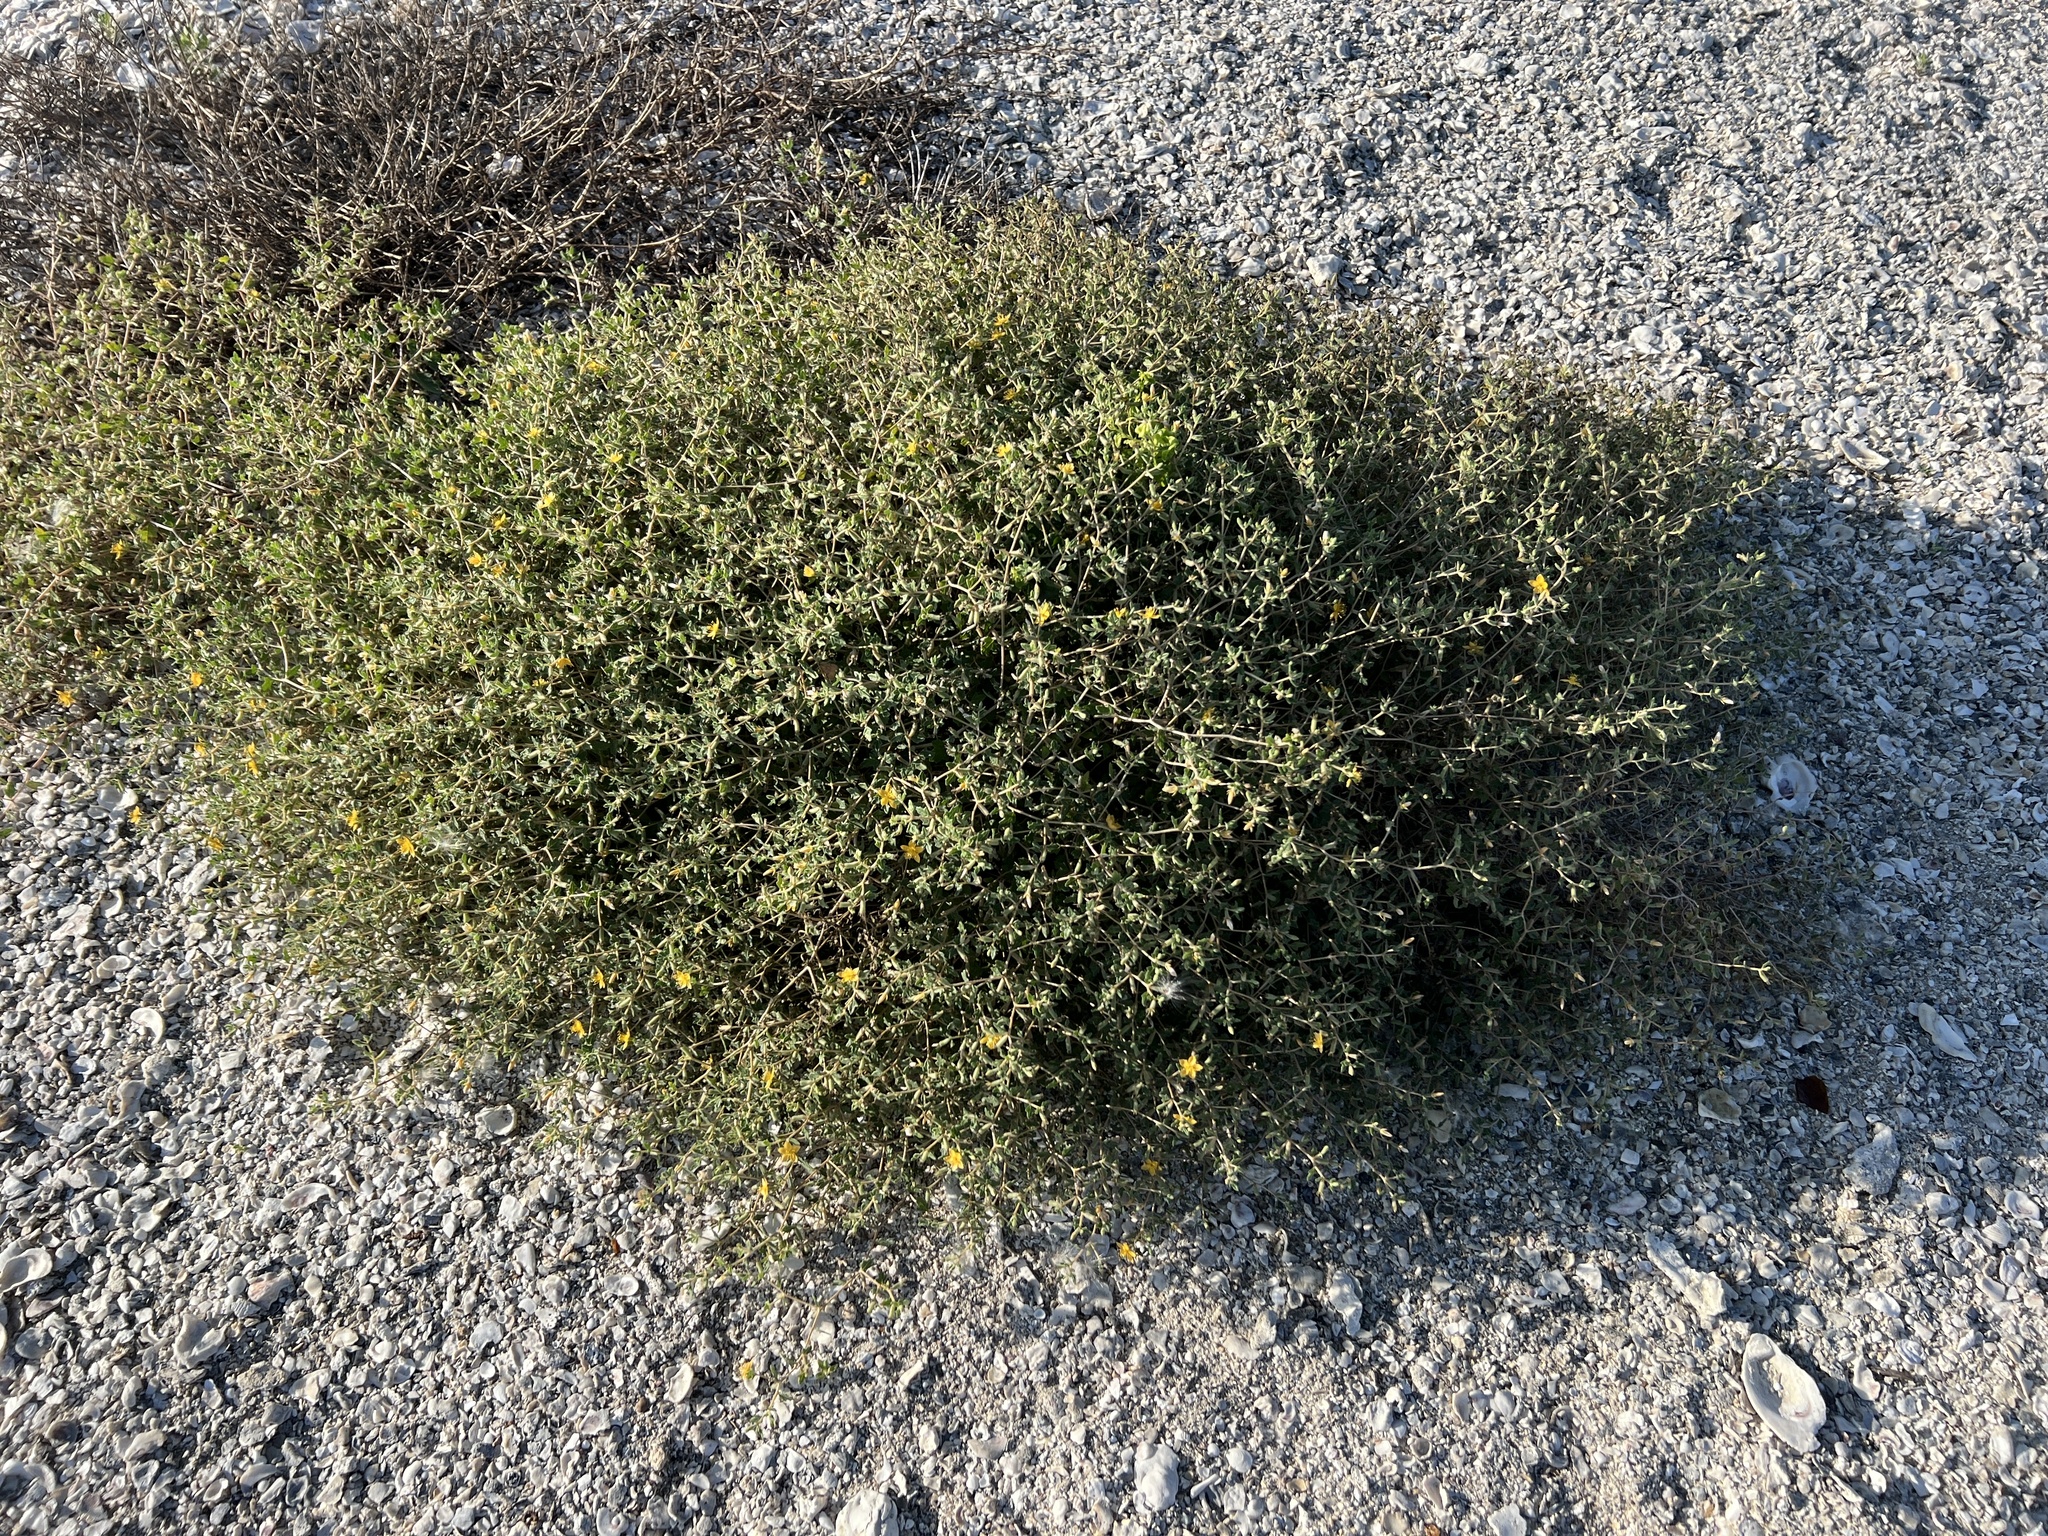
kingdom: Plantae
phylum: Tracheophyta
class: Magnoliopsida
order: Cornales
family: Loasaceae
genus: Mentzelia
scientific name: Mentzelia oligosperma
